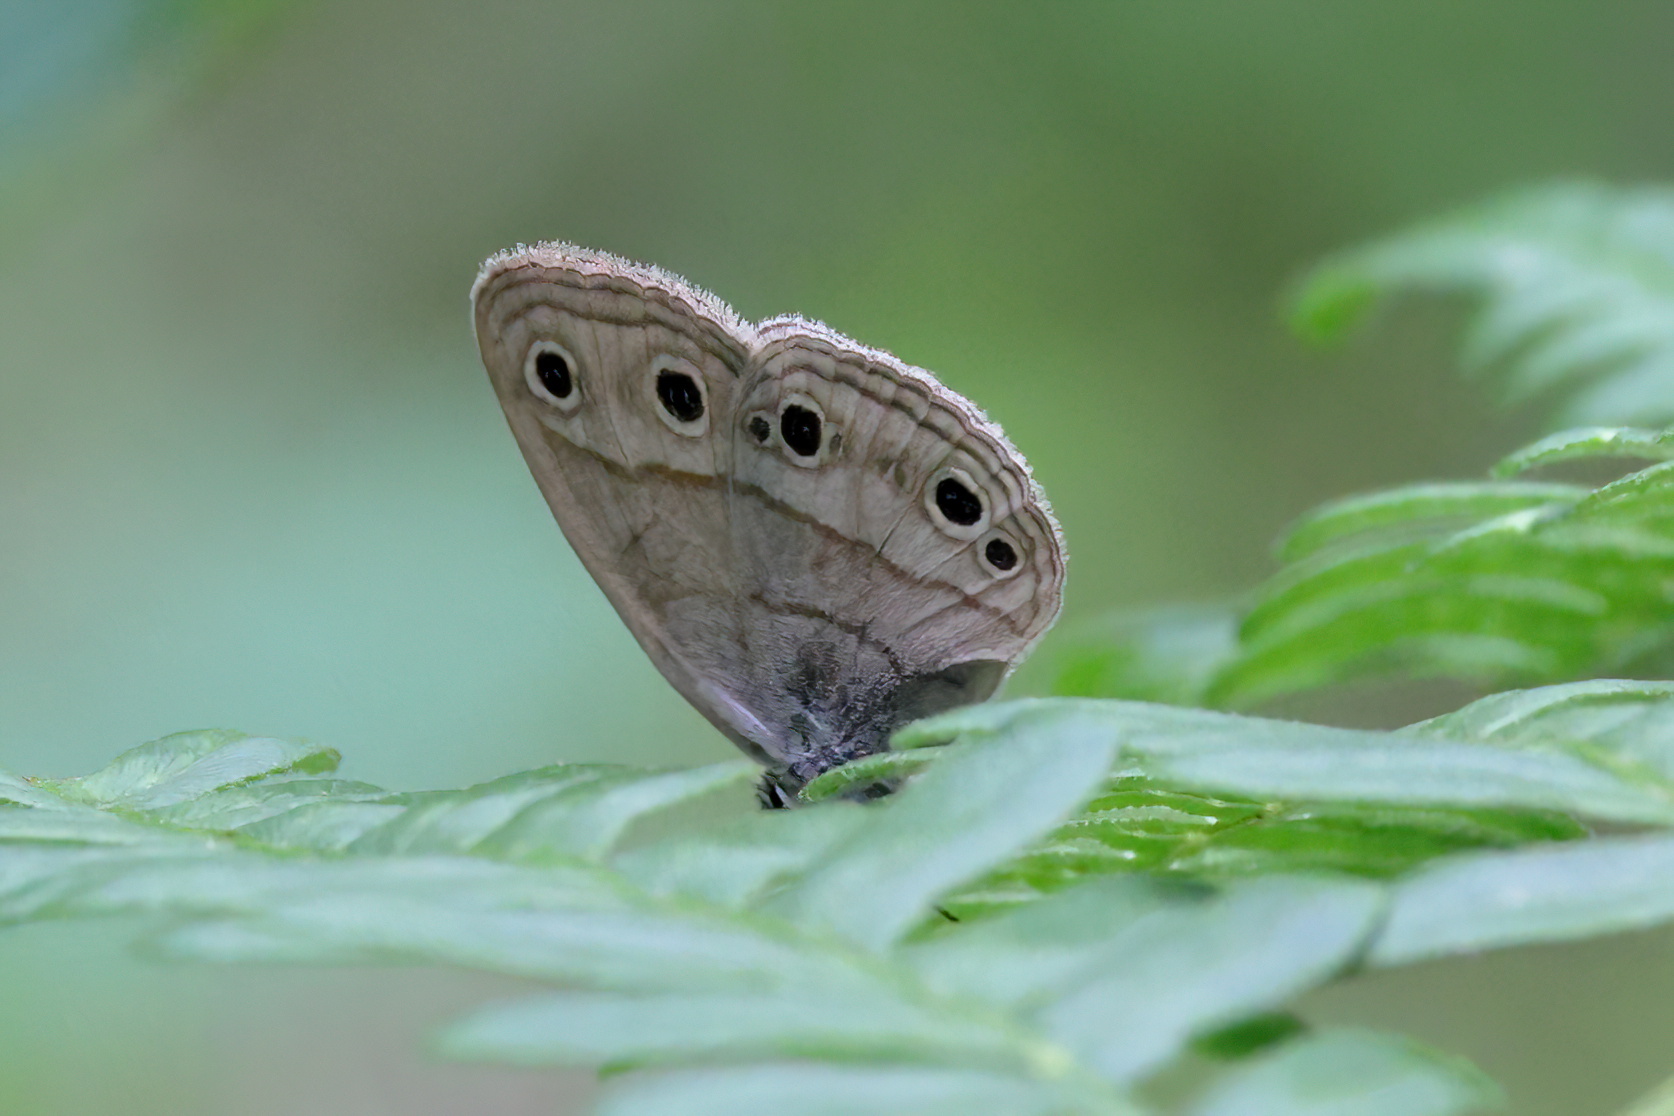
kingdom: Animalia
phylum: Arthropoda
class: Insecta
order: Lepidoptera
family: Nymphalidae
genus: Euptychia
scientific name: Euptychia cymela
